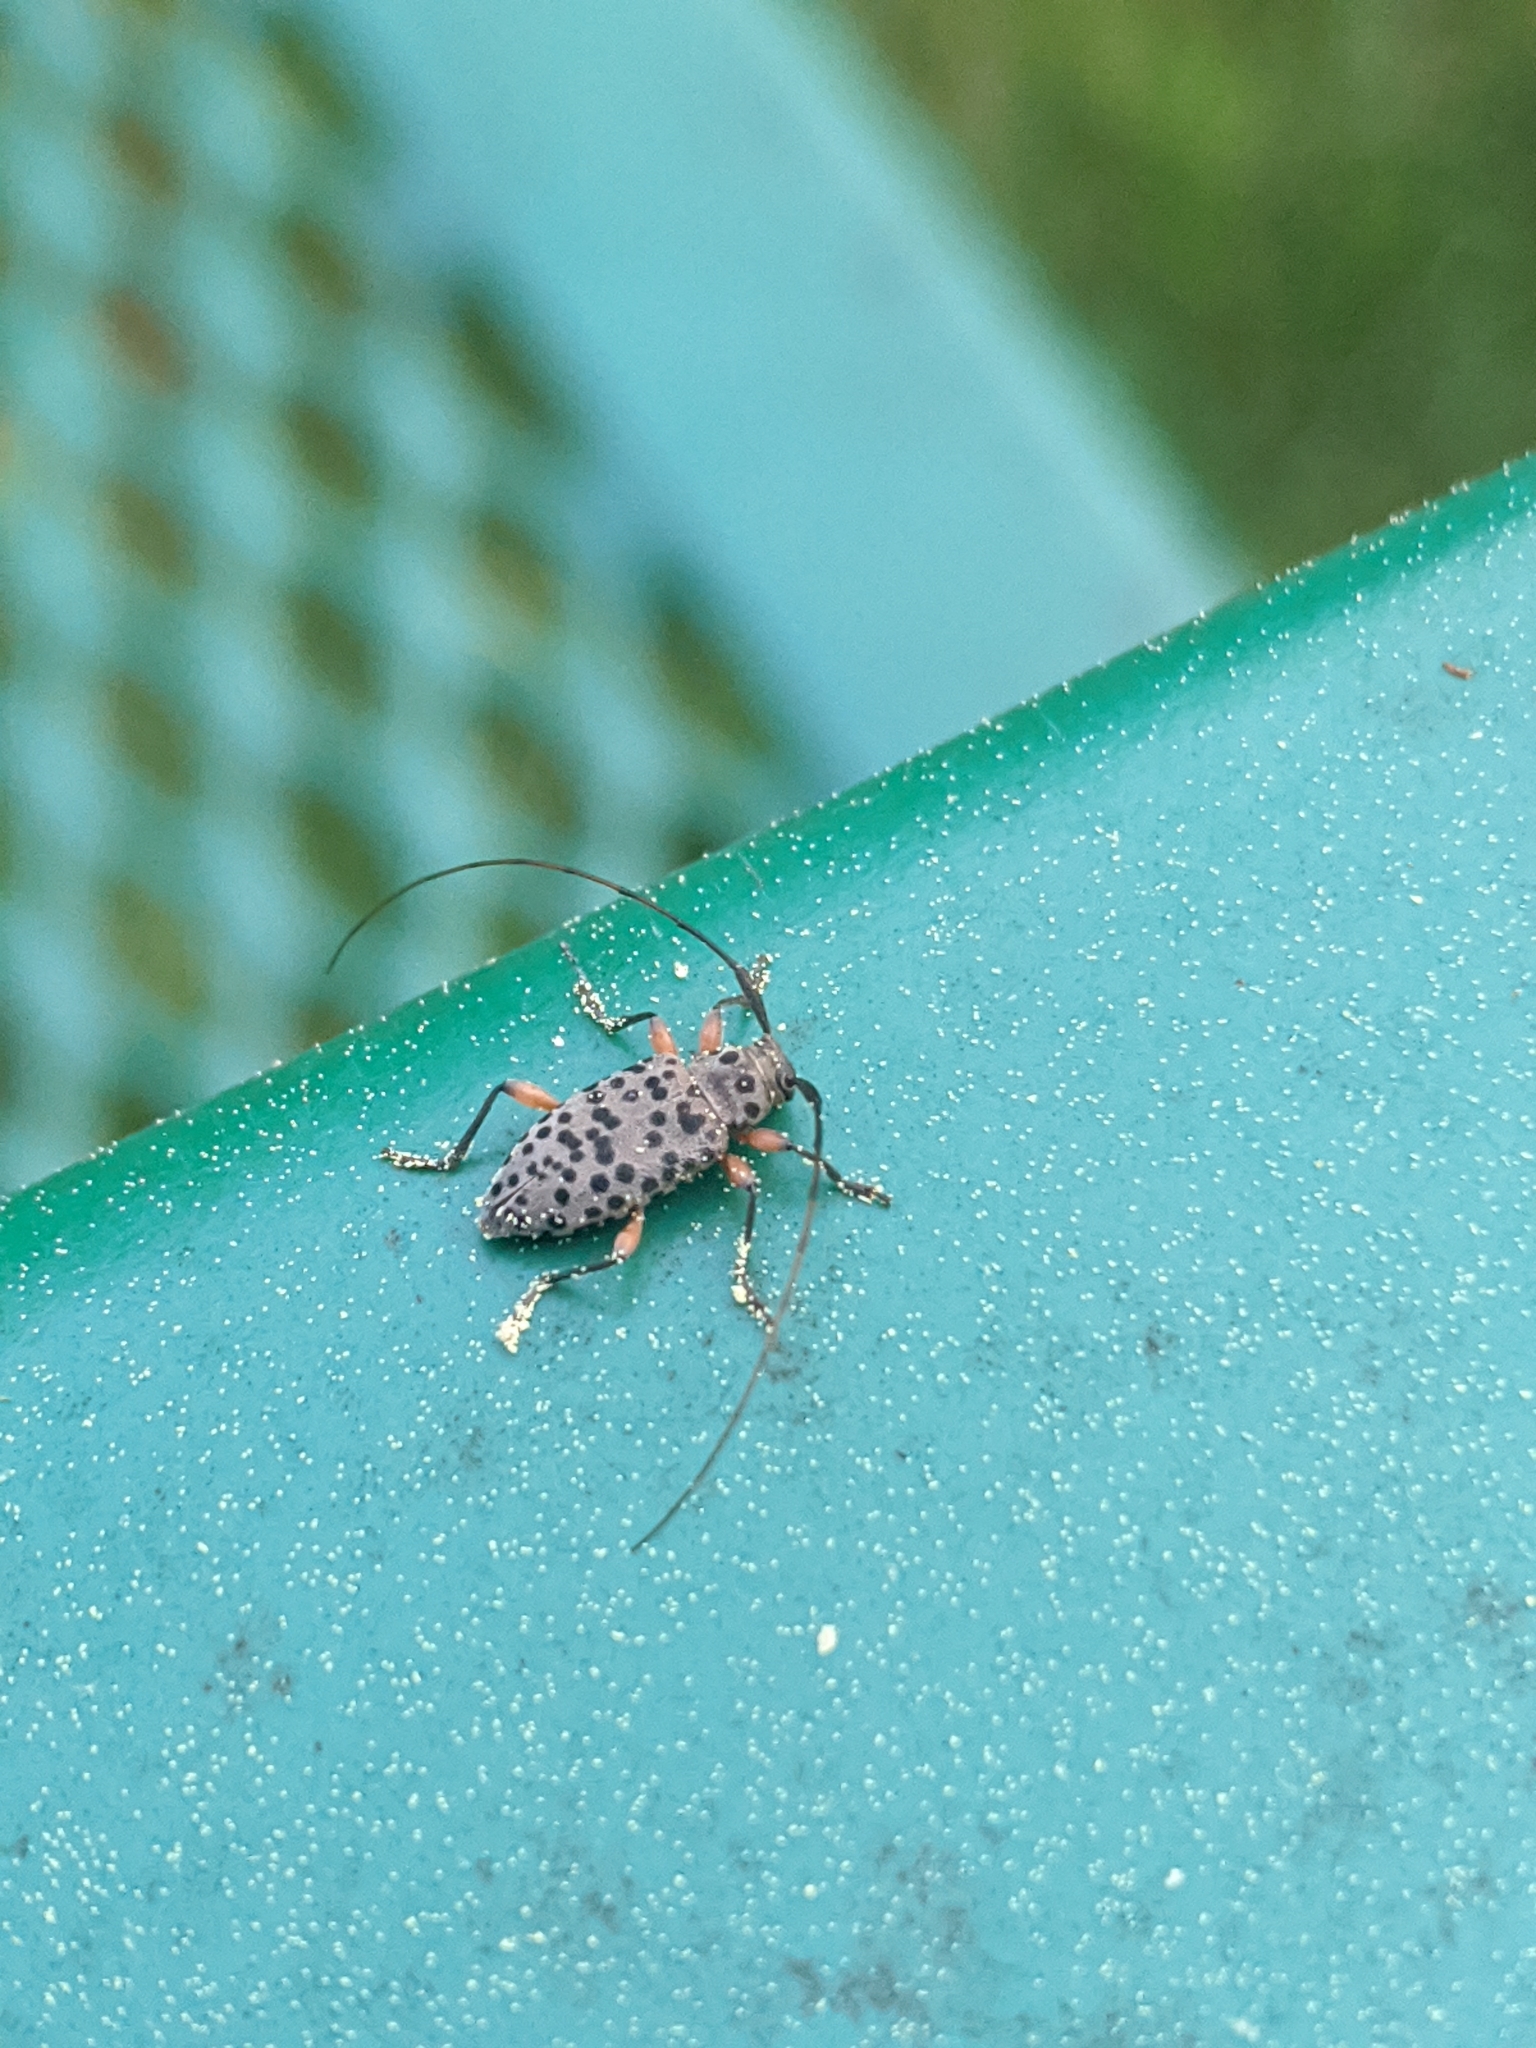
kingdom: Animalia
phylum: Arthropoda
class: Insecta
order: Coleoptera
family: Cerambycidae
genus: Hyperplatys
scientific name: Hyperplatys aspersa
